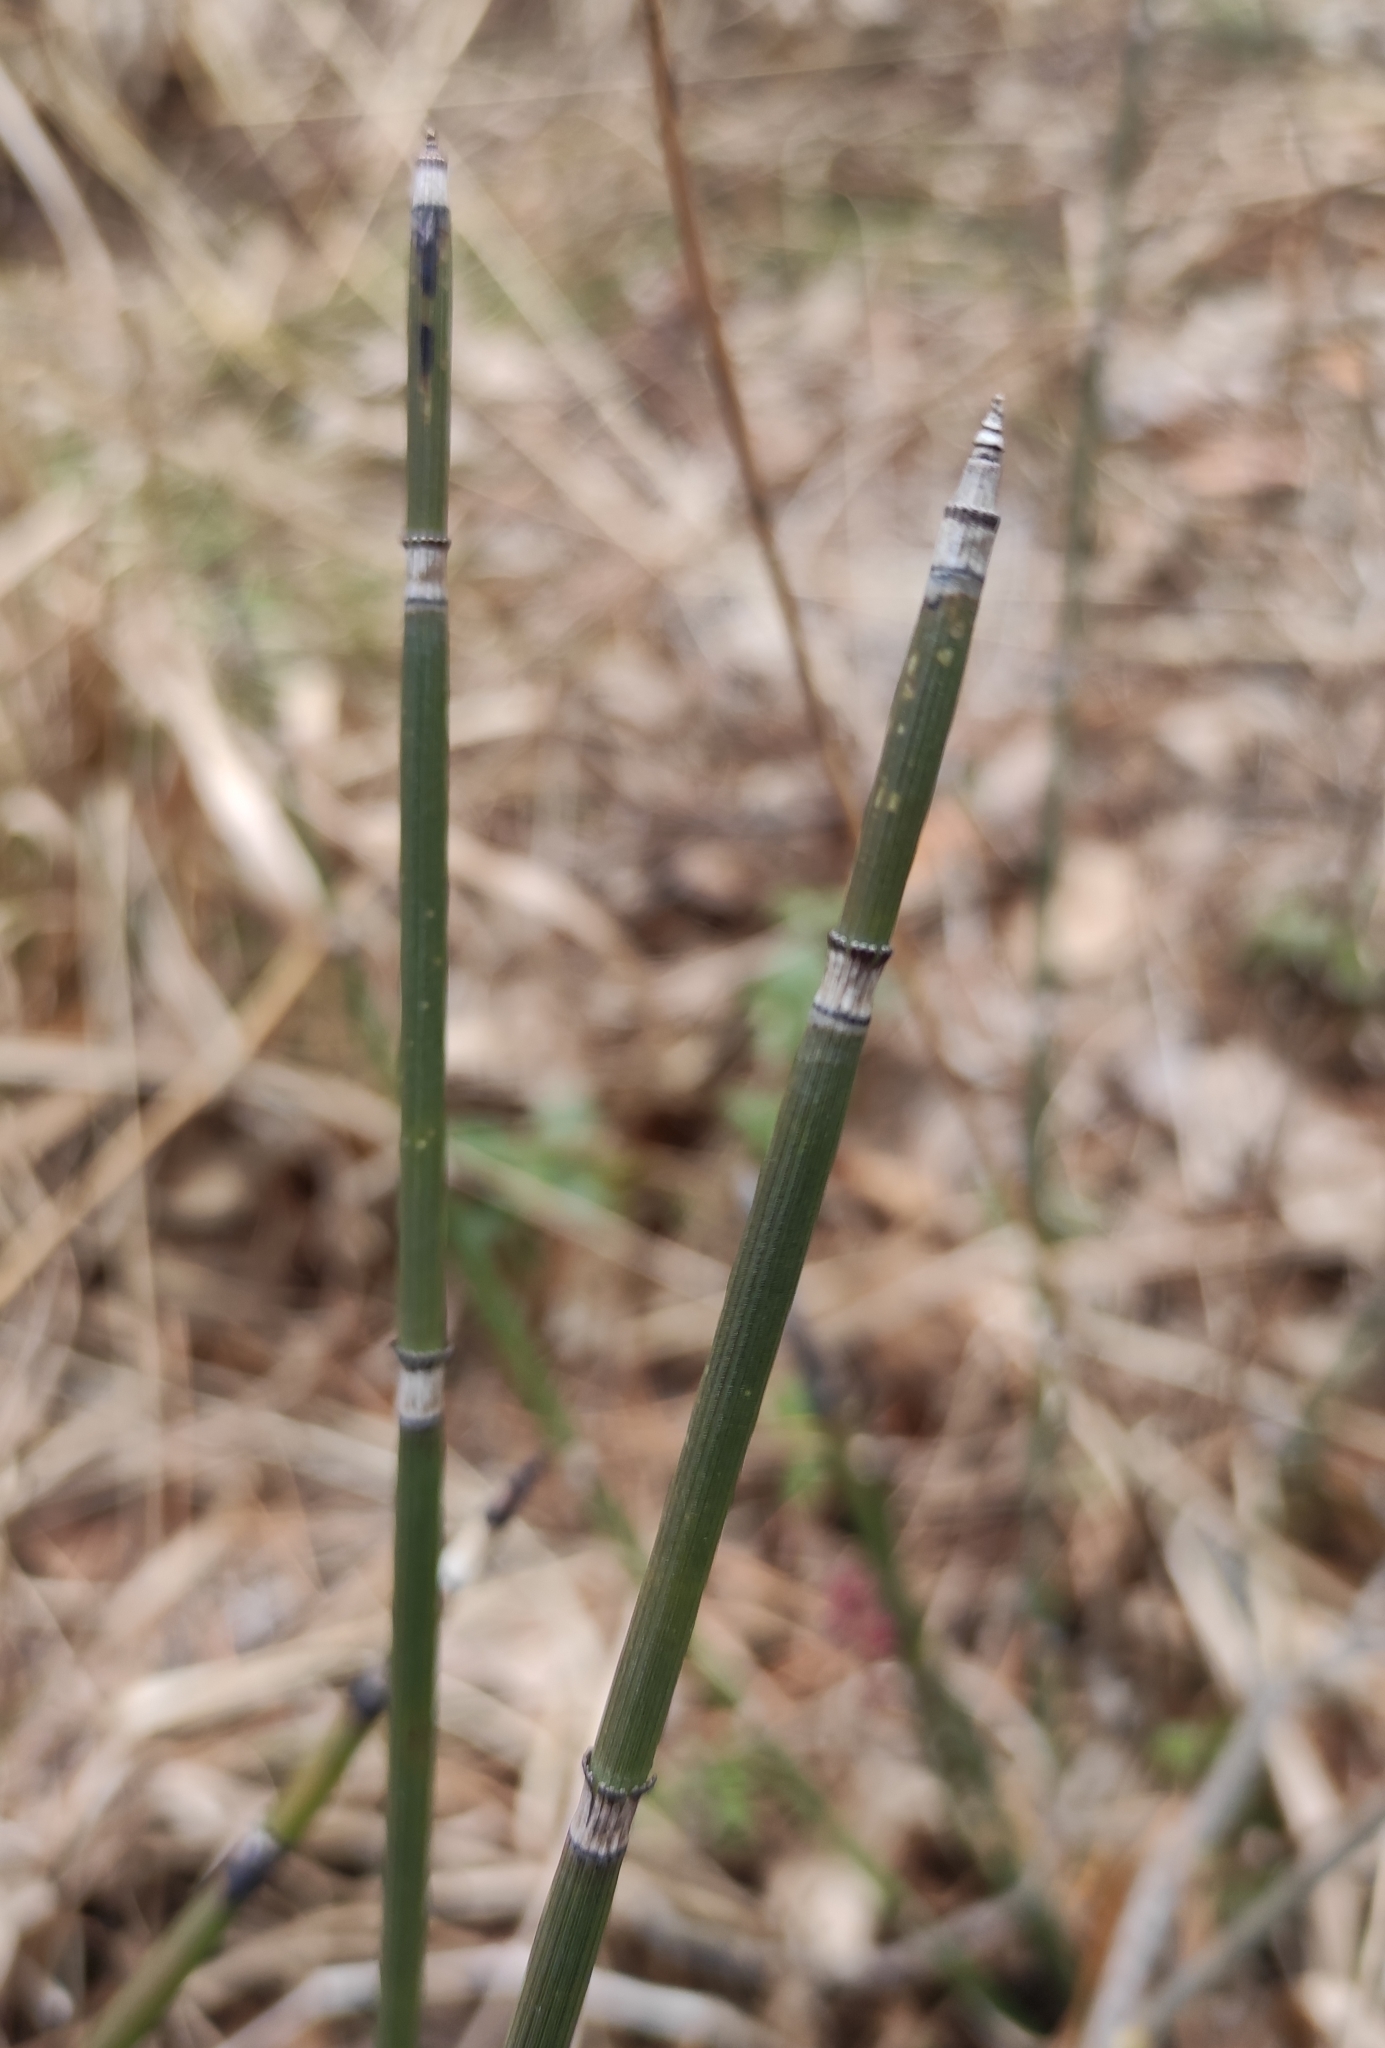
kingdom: Plantae
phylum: Tracheophyta
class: Polypodiopsida
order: Equisetales
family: Equisetaceae
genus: Equisetum
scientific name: Equisetum hyemale
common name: Rough horsetail
